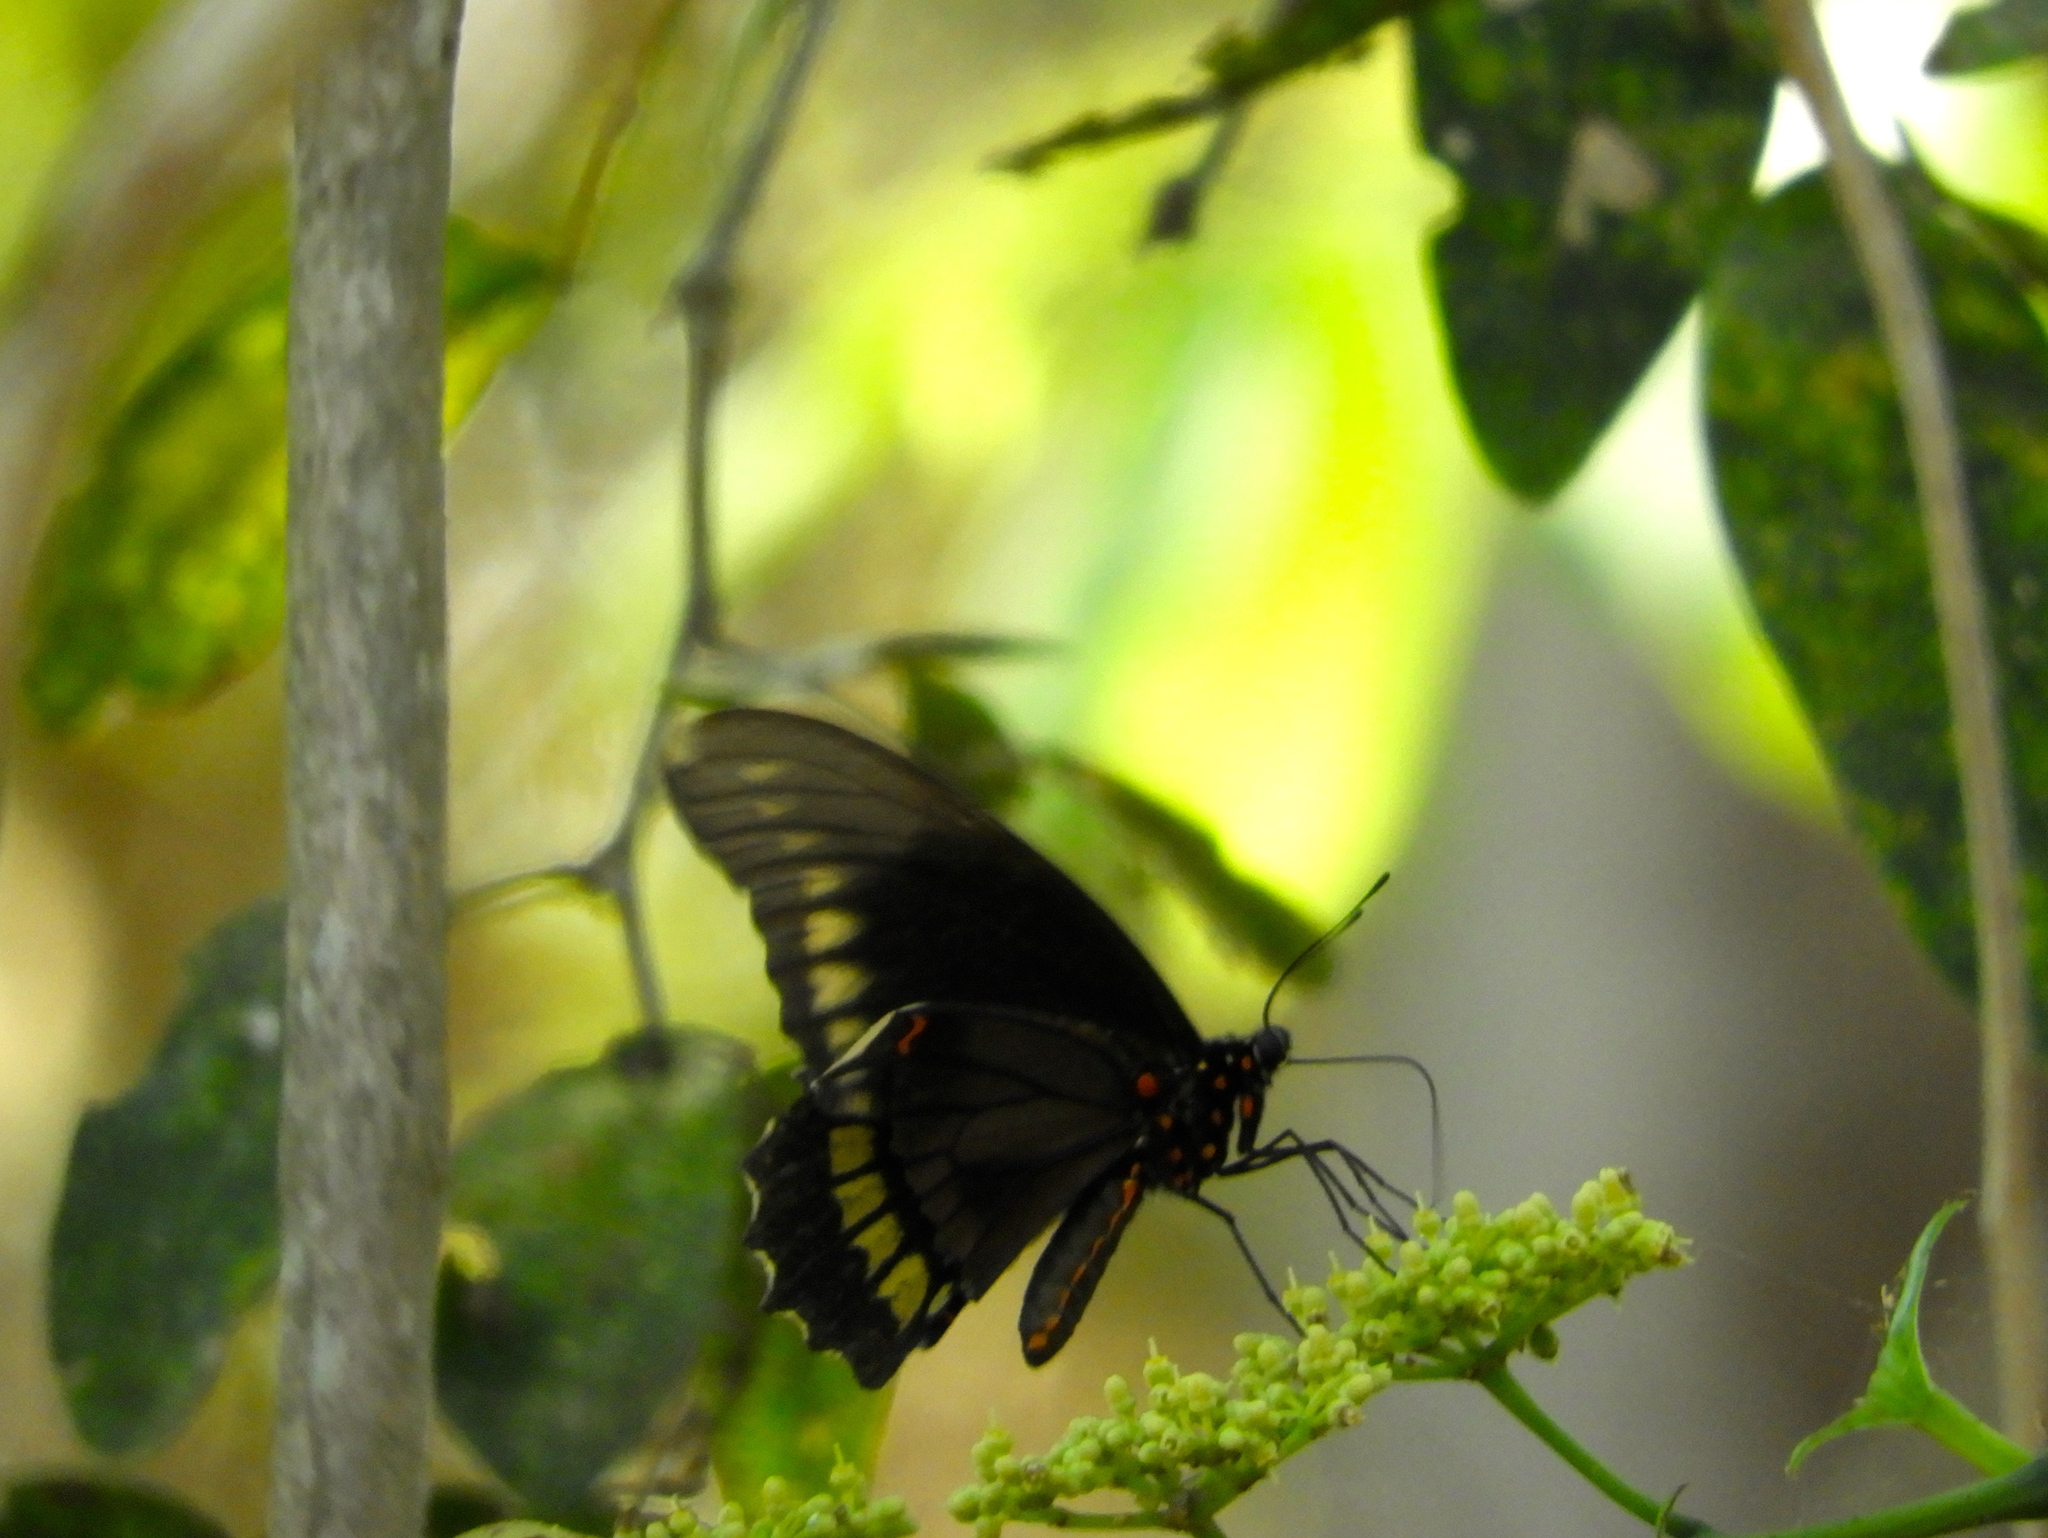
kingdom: Animalia
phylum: Arthropoda
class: Insecta
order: Lepidoptera
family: Papilionidae
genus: Battus
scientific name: Battus polydamas
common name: Polydamas swallowtail
